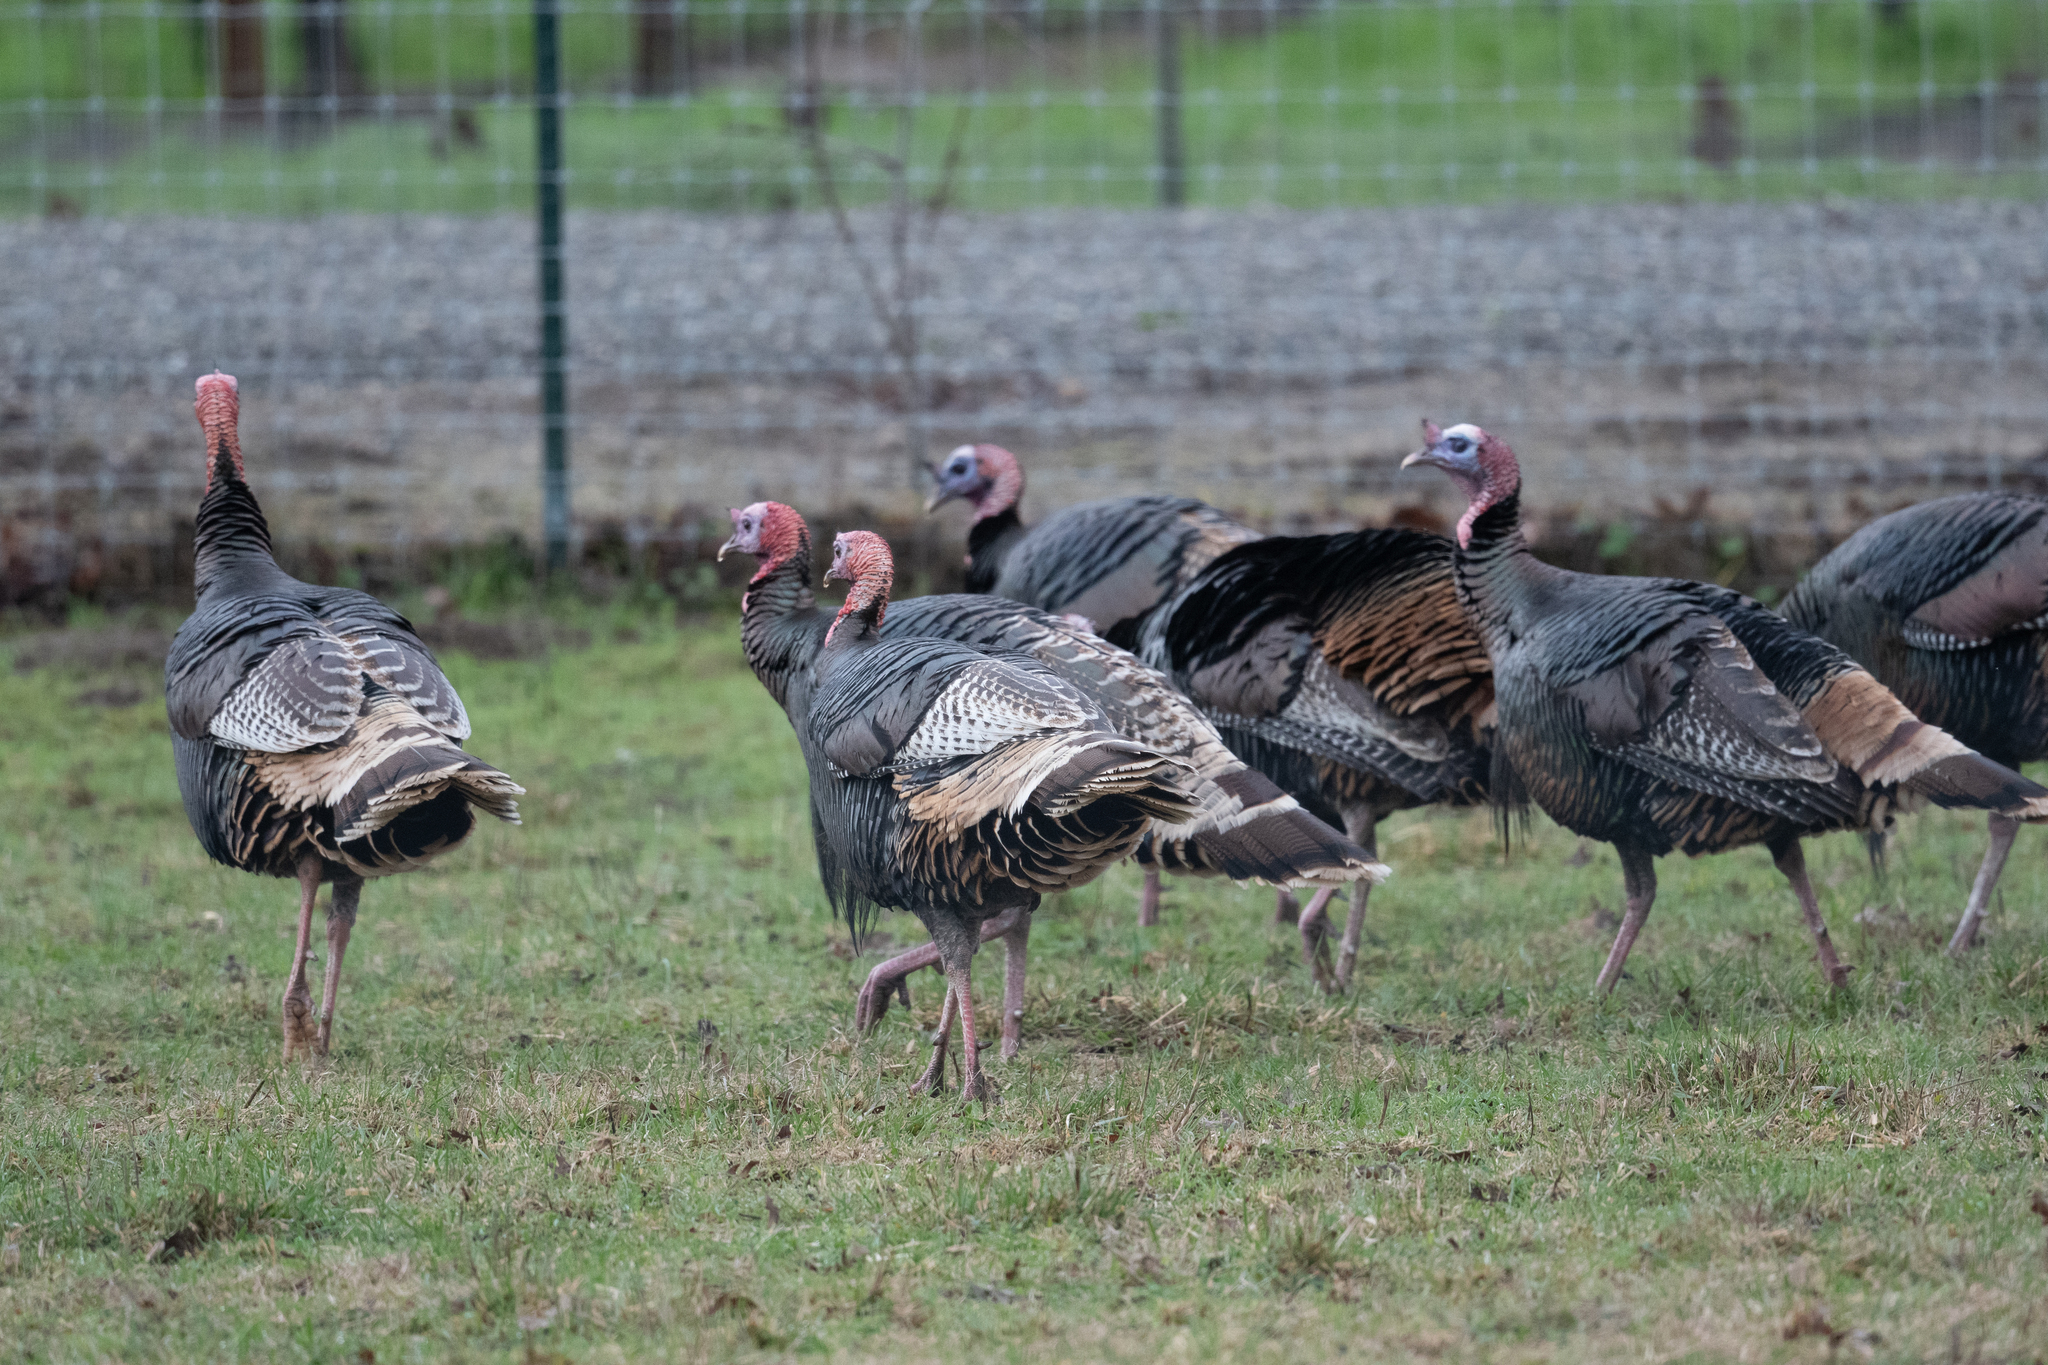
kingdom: Animalia
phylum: Chordata
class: Aves
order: Galliformes
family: Phasianidae
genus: Meleagris
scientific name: Meleagris gallopavo
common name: Wild turkey
